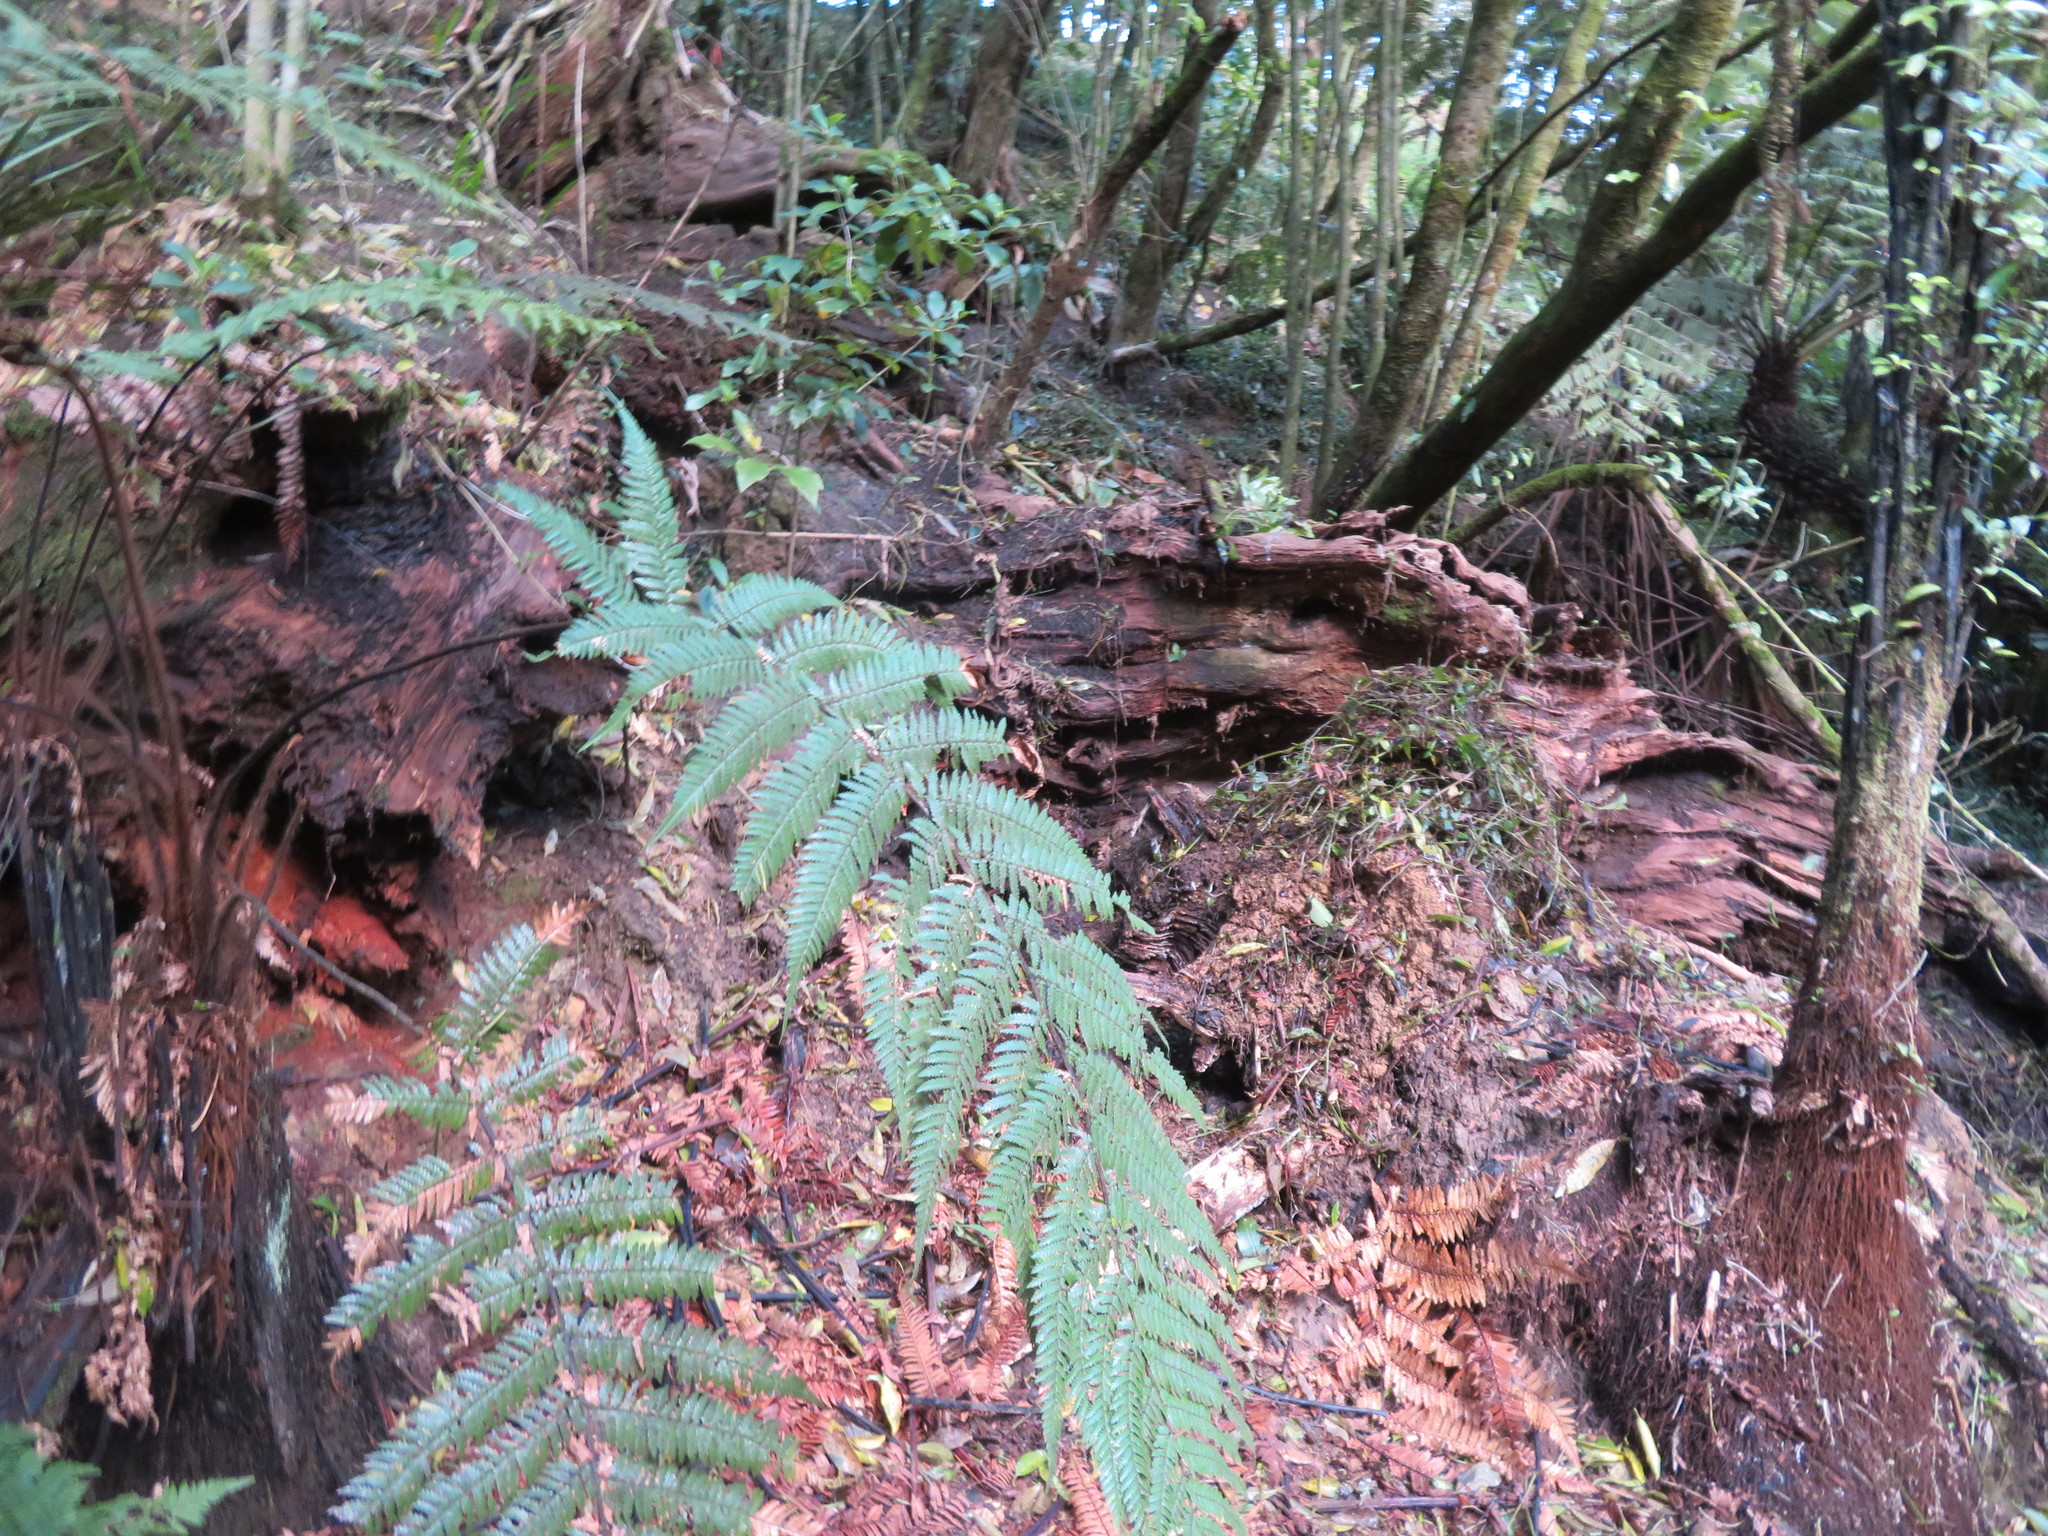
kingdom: Plantae
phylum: Tracheophyta
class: Polypodiopsida
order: Cyatheales
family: Dicksoniaceae
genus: Dicksonia
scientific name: Dicksonia squarrosa
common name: Hard treefern
